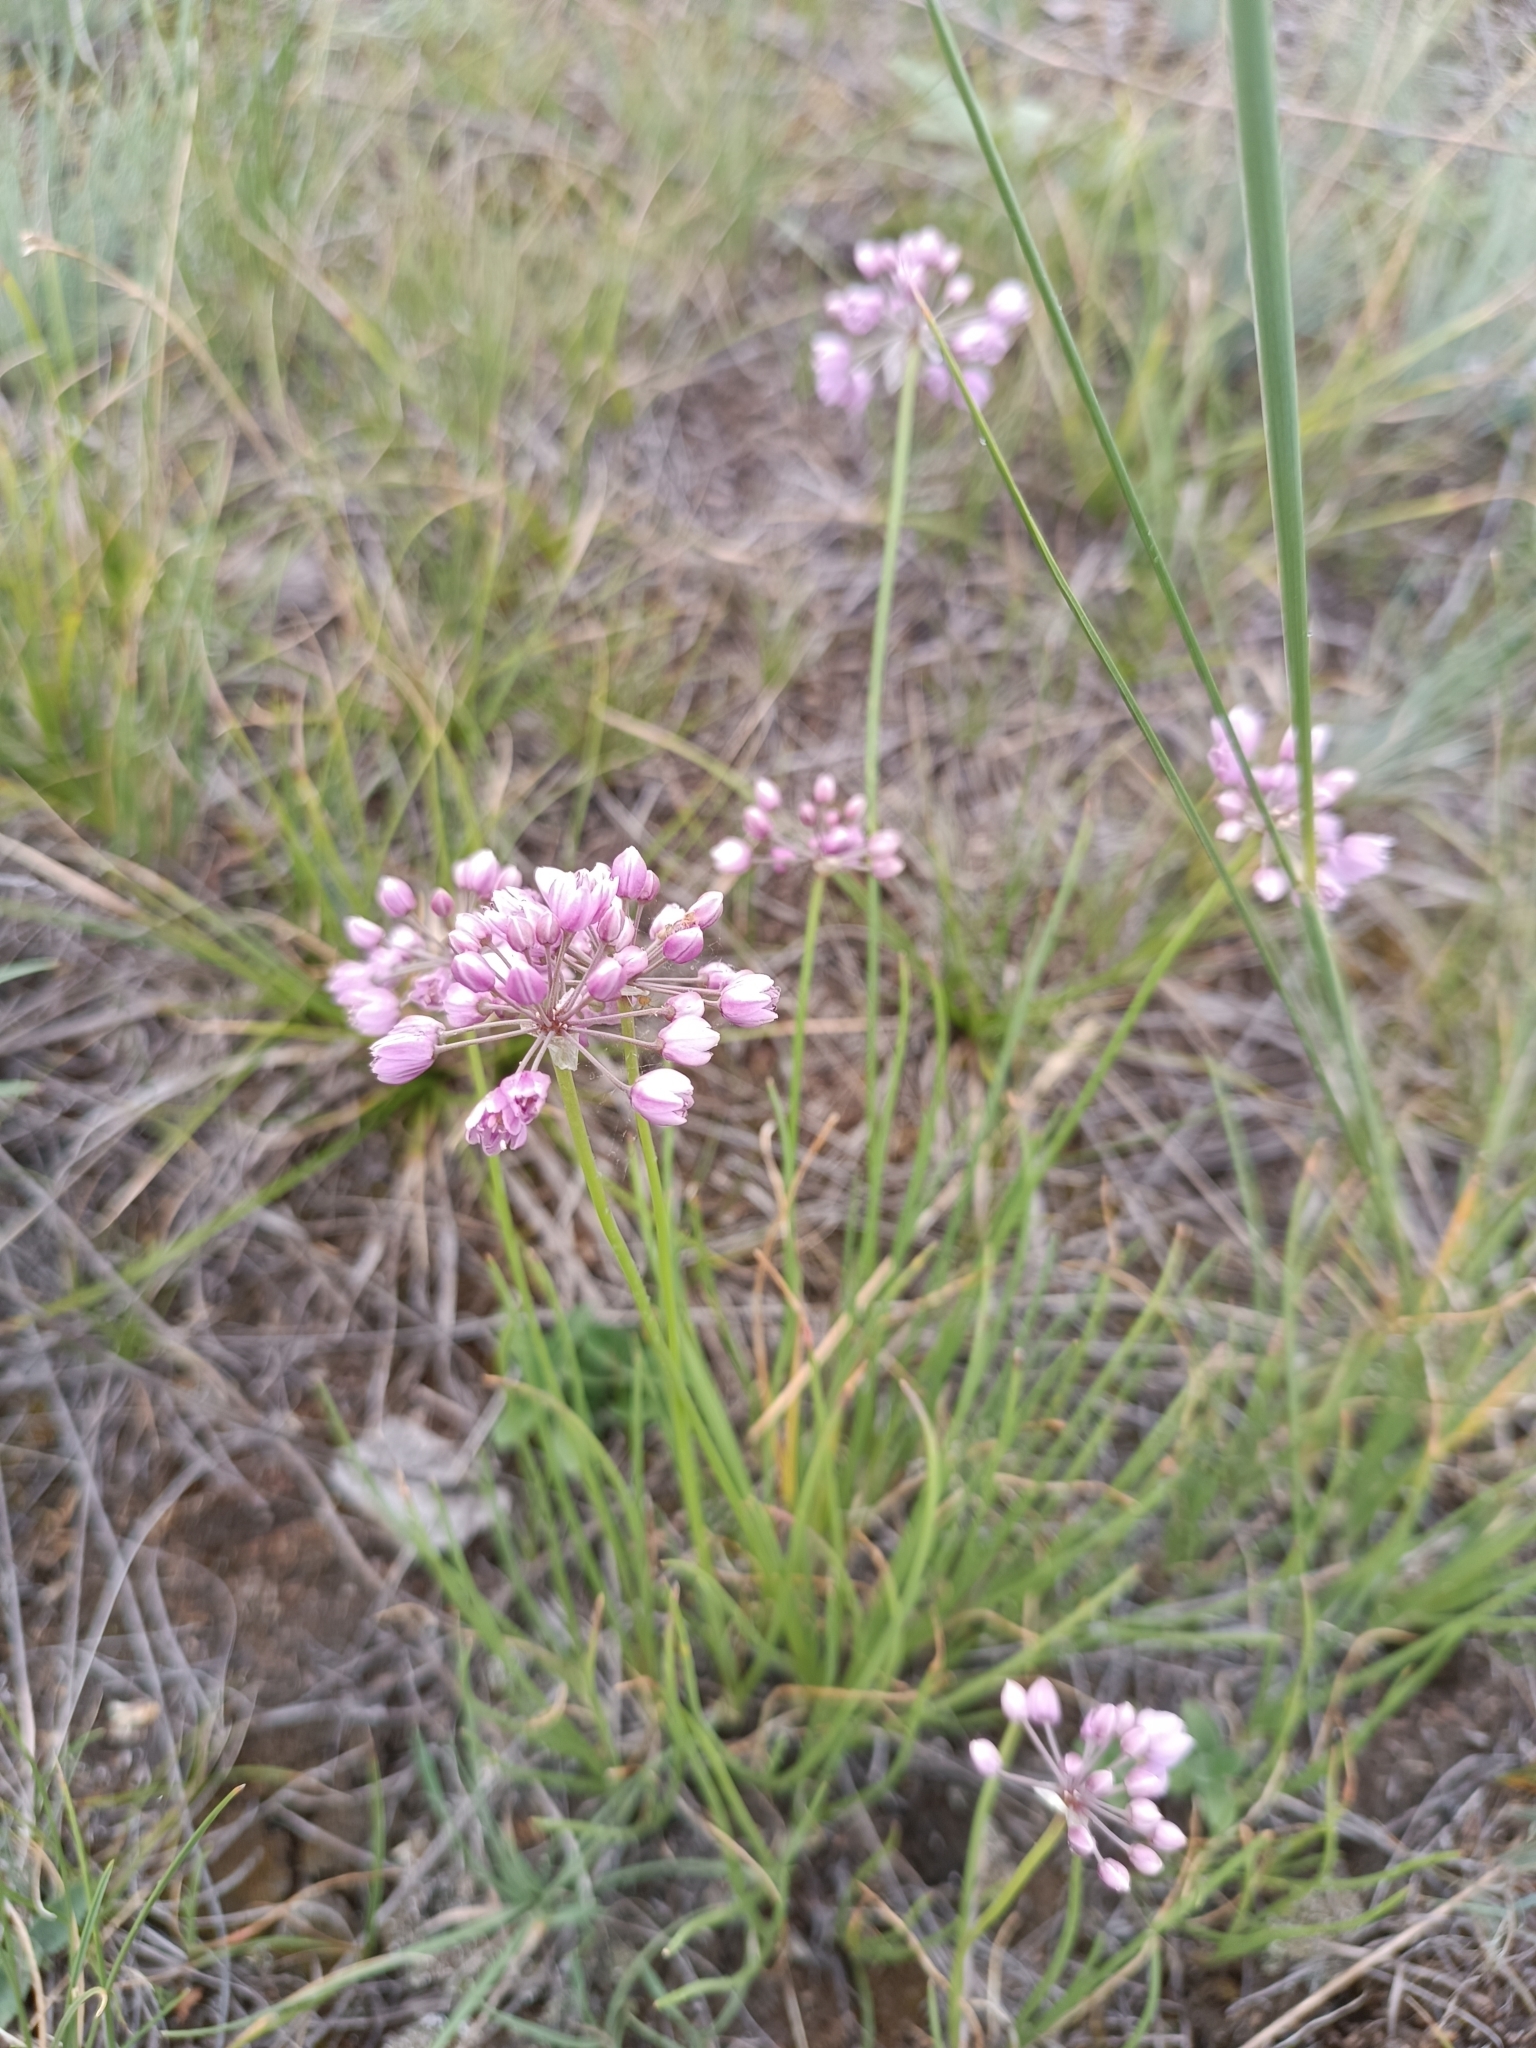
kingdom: Plantae
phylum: Tracheophyta
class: Liliopsida
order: Asparagales
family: Amaryllidaceae
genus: Allium
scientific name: Allium rubens
